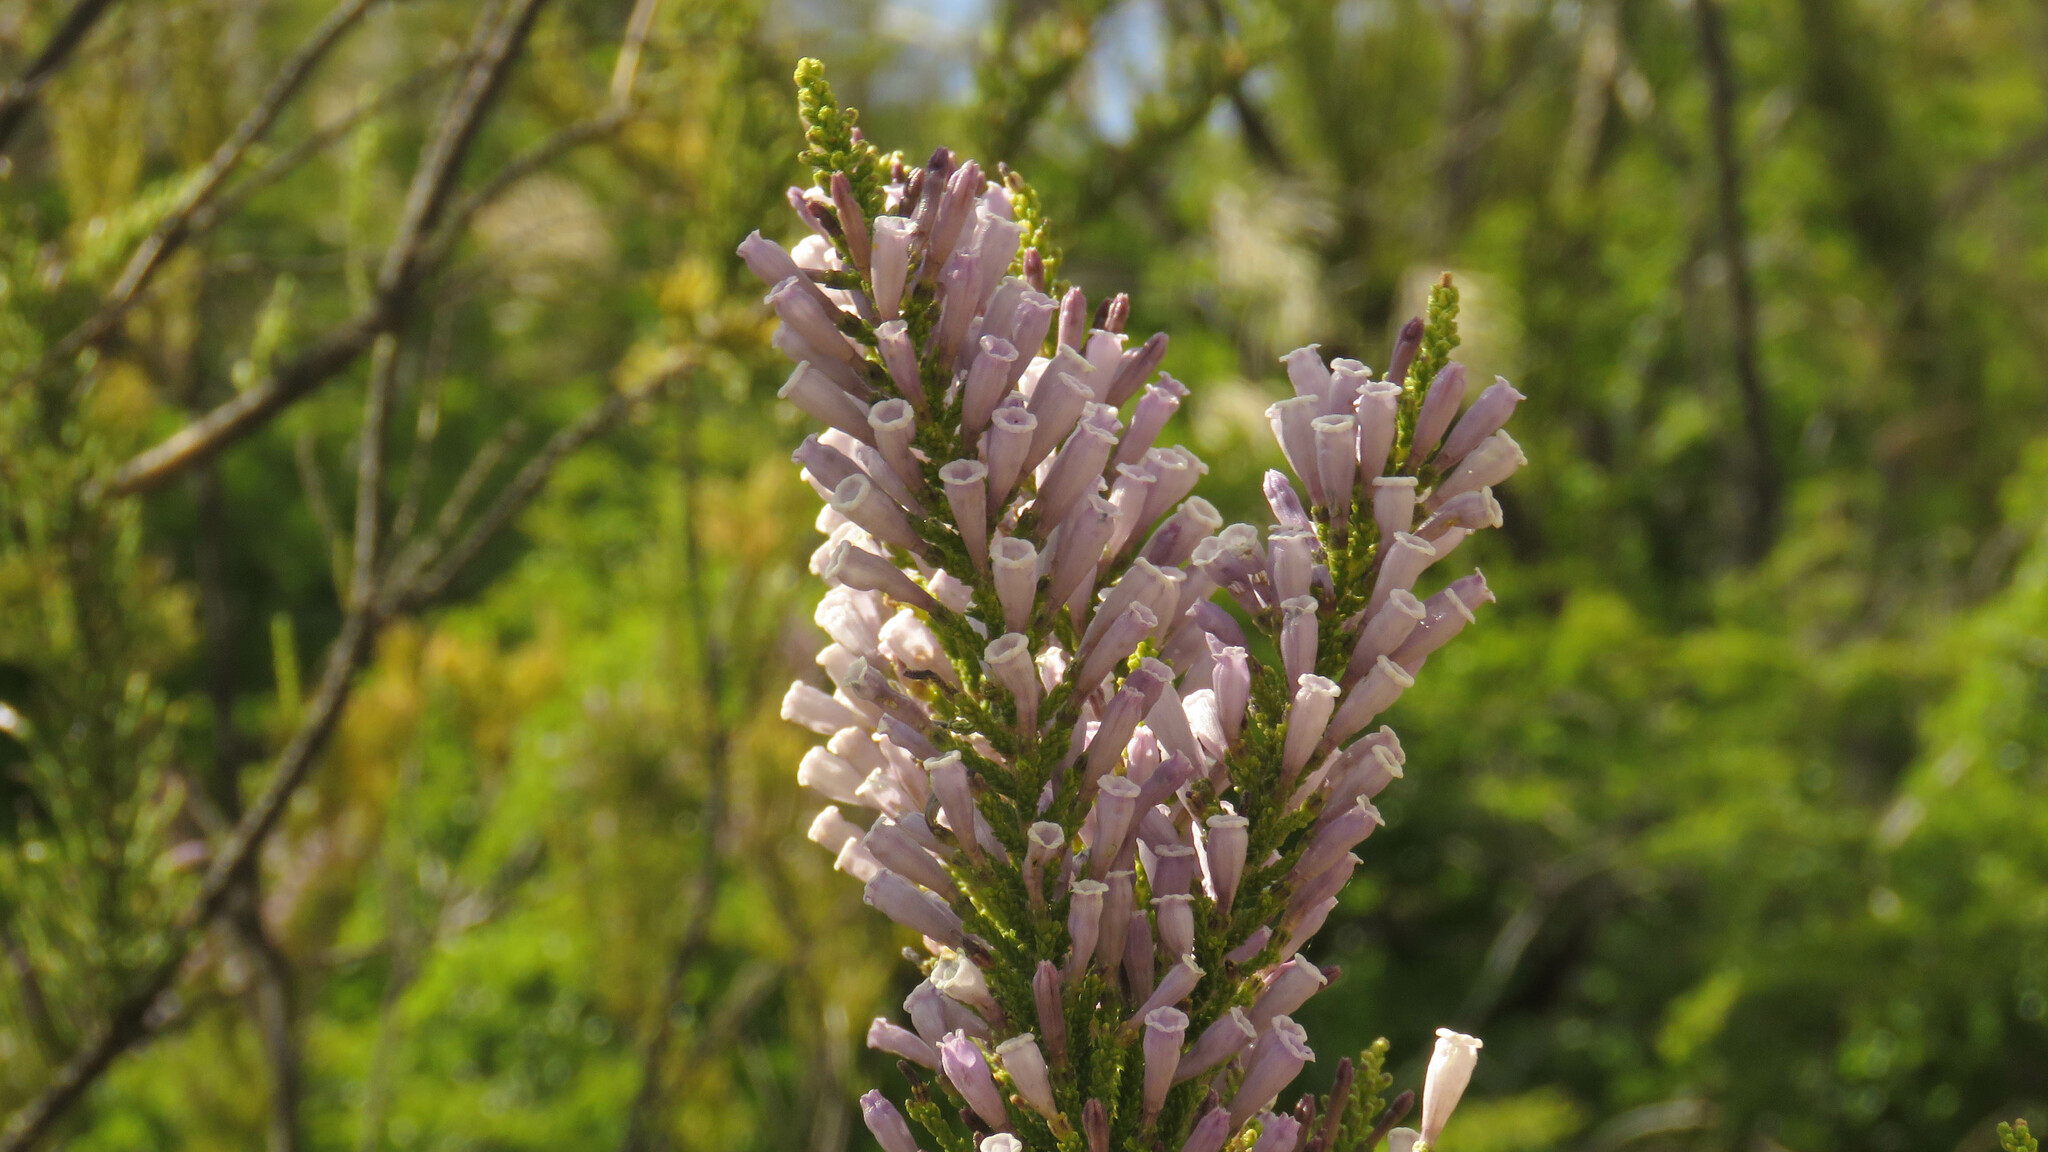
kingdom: Plantae
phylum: Tracheophyta
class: Magnoliopsida
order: Solanales
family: Solanaceae
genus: Fabiana
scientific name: Fabiana imbricata
